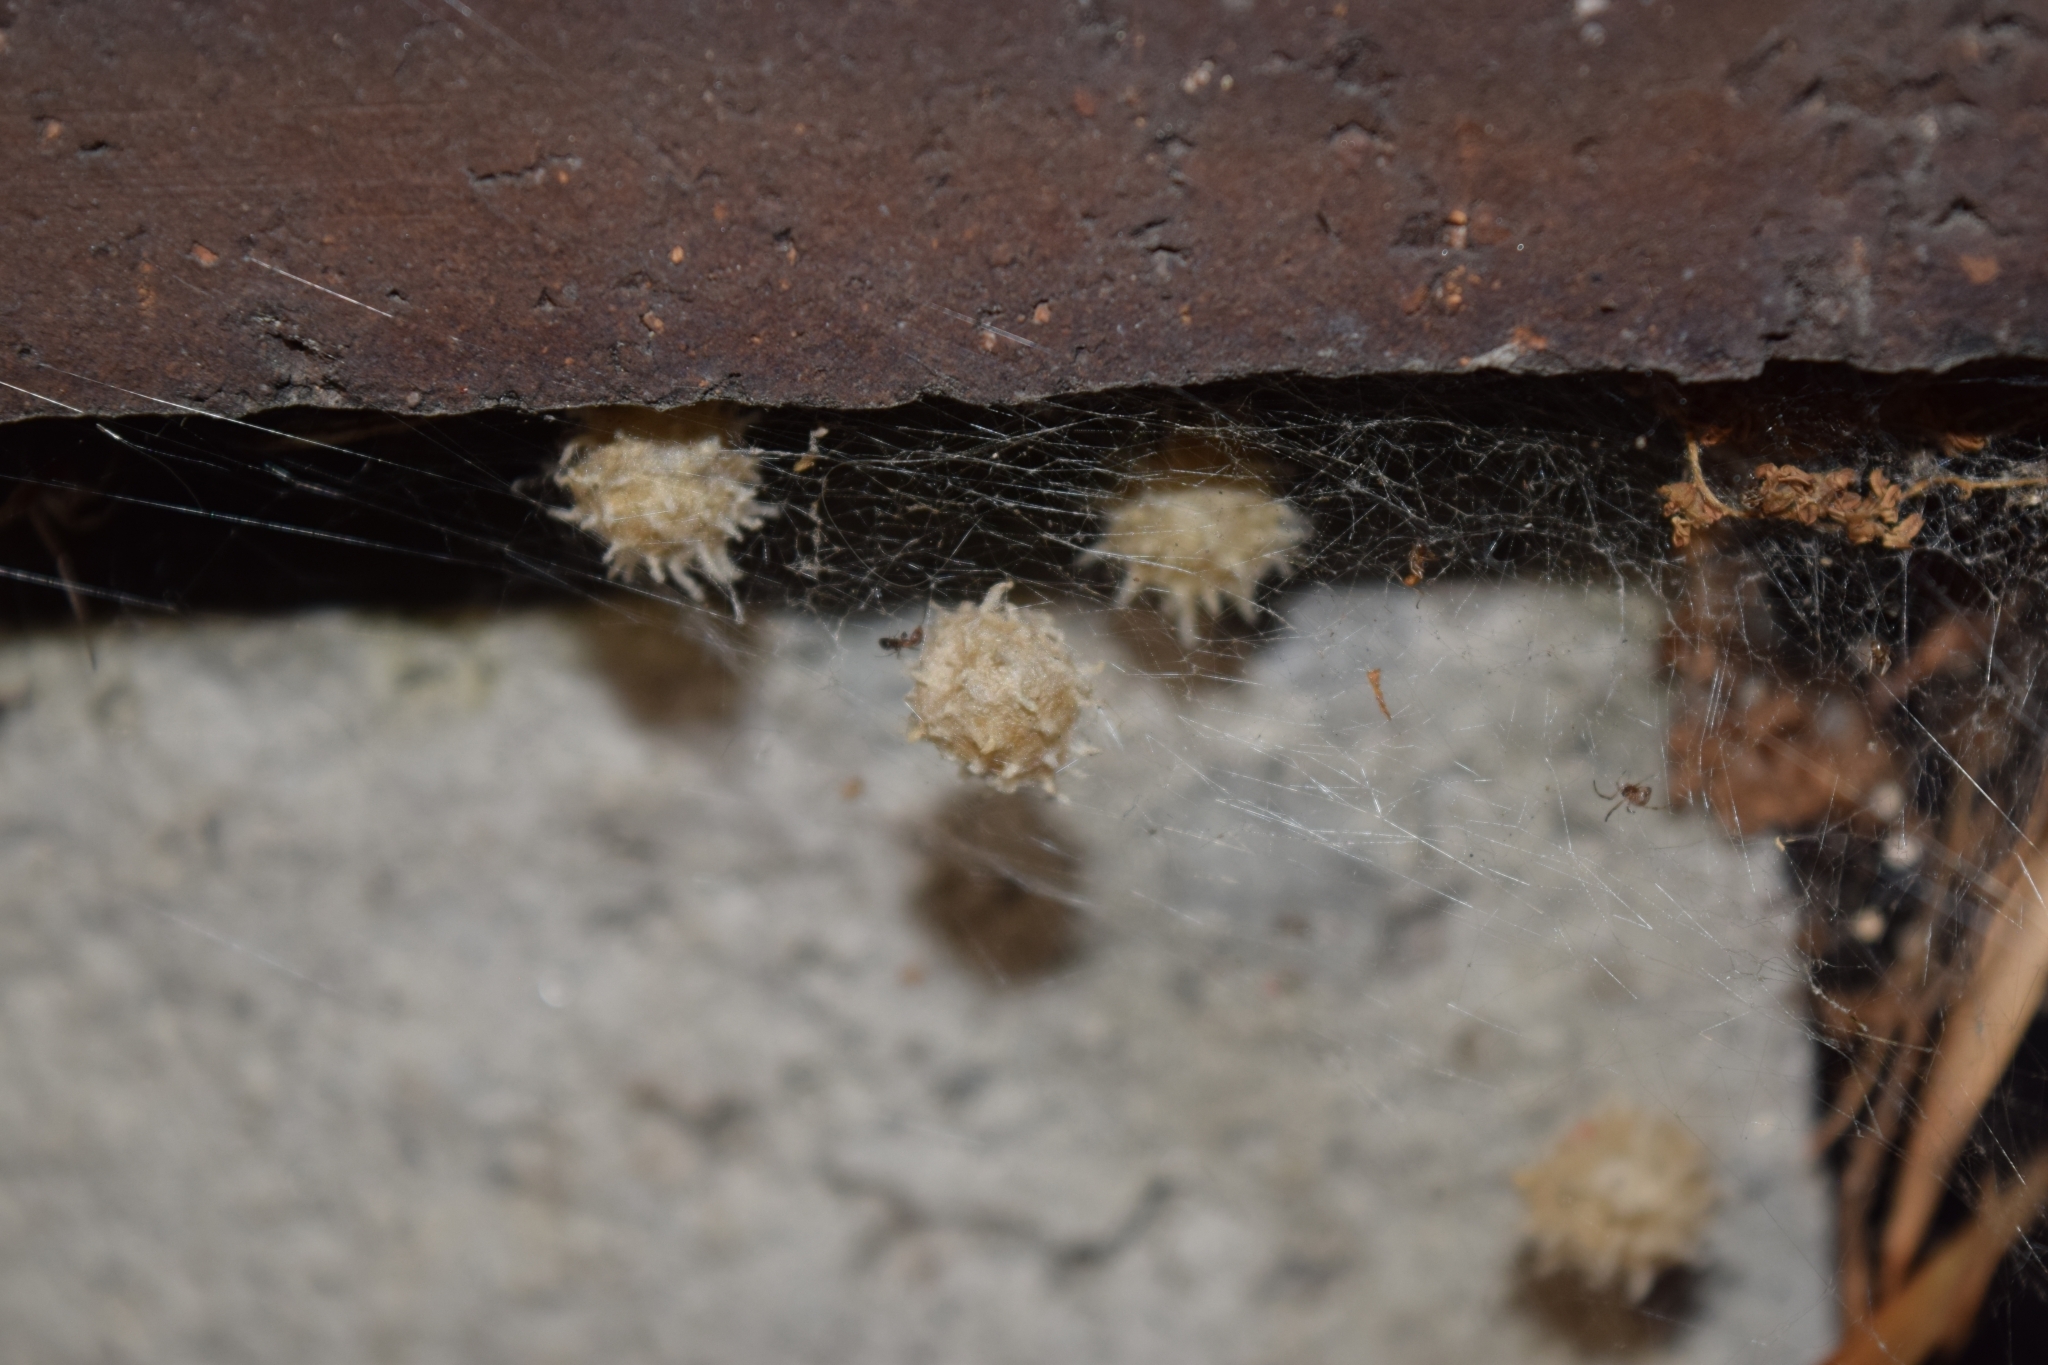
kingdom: Animalia
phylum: Arthropoda
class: Arachnida
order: Araneae
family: Theridiidae
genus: Latrodectus
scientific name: Latrodectus geometricus
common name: Brown widow spider
